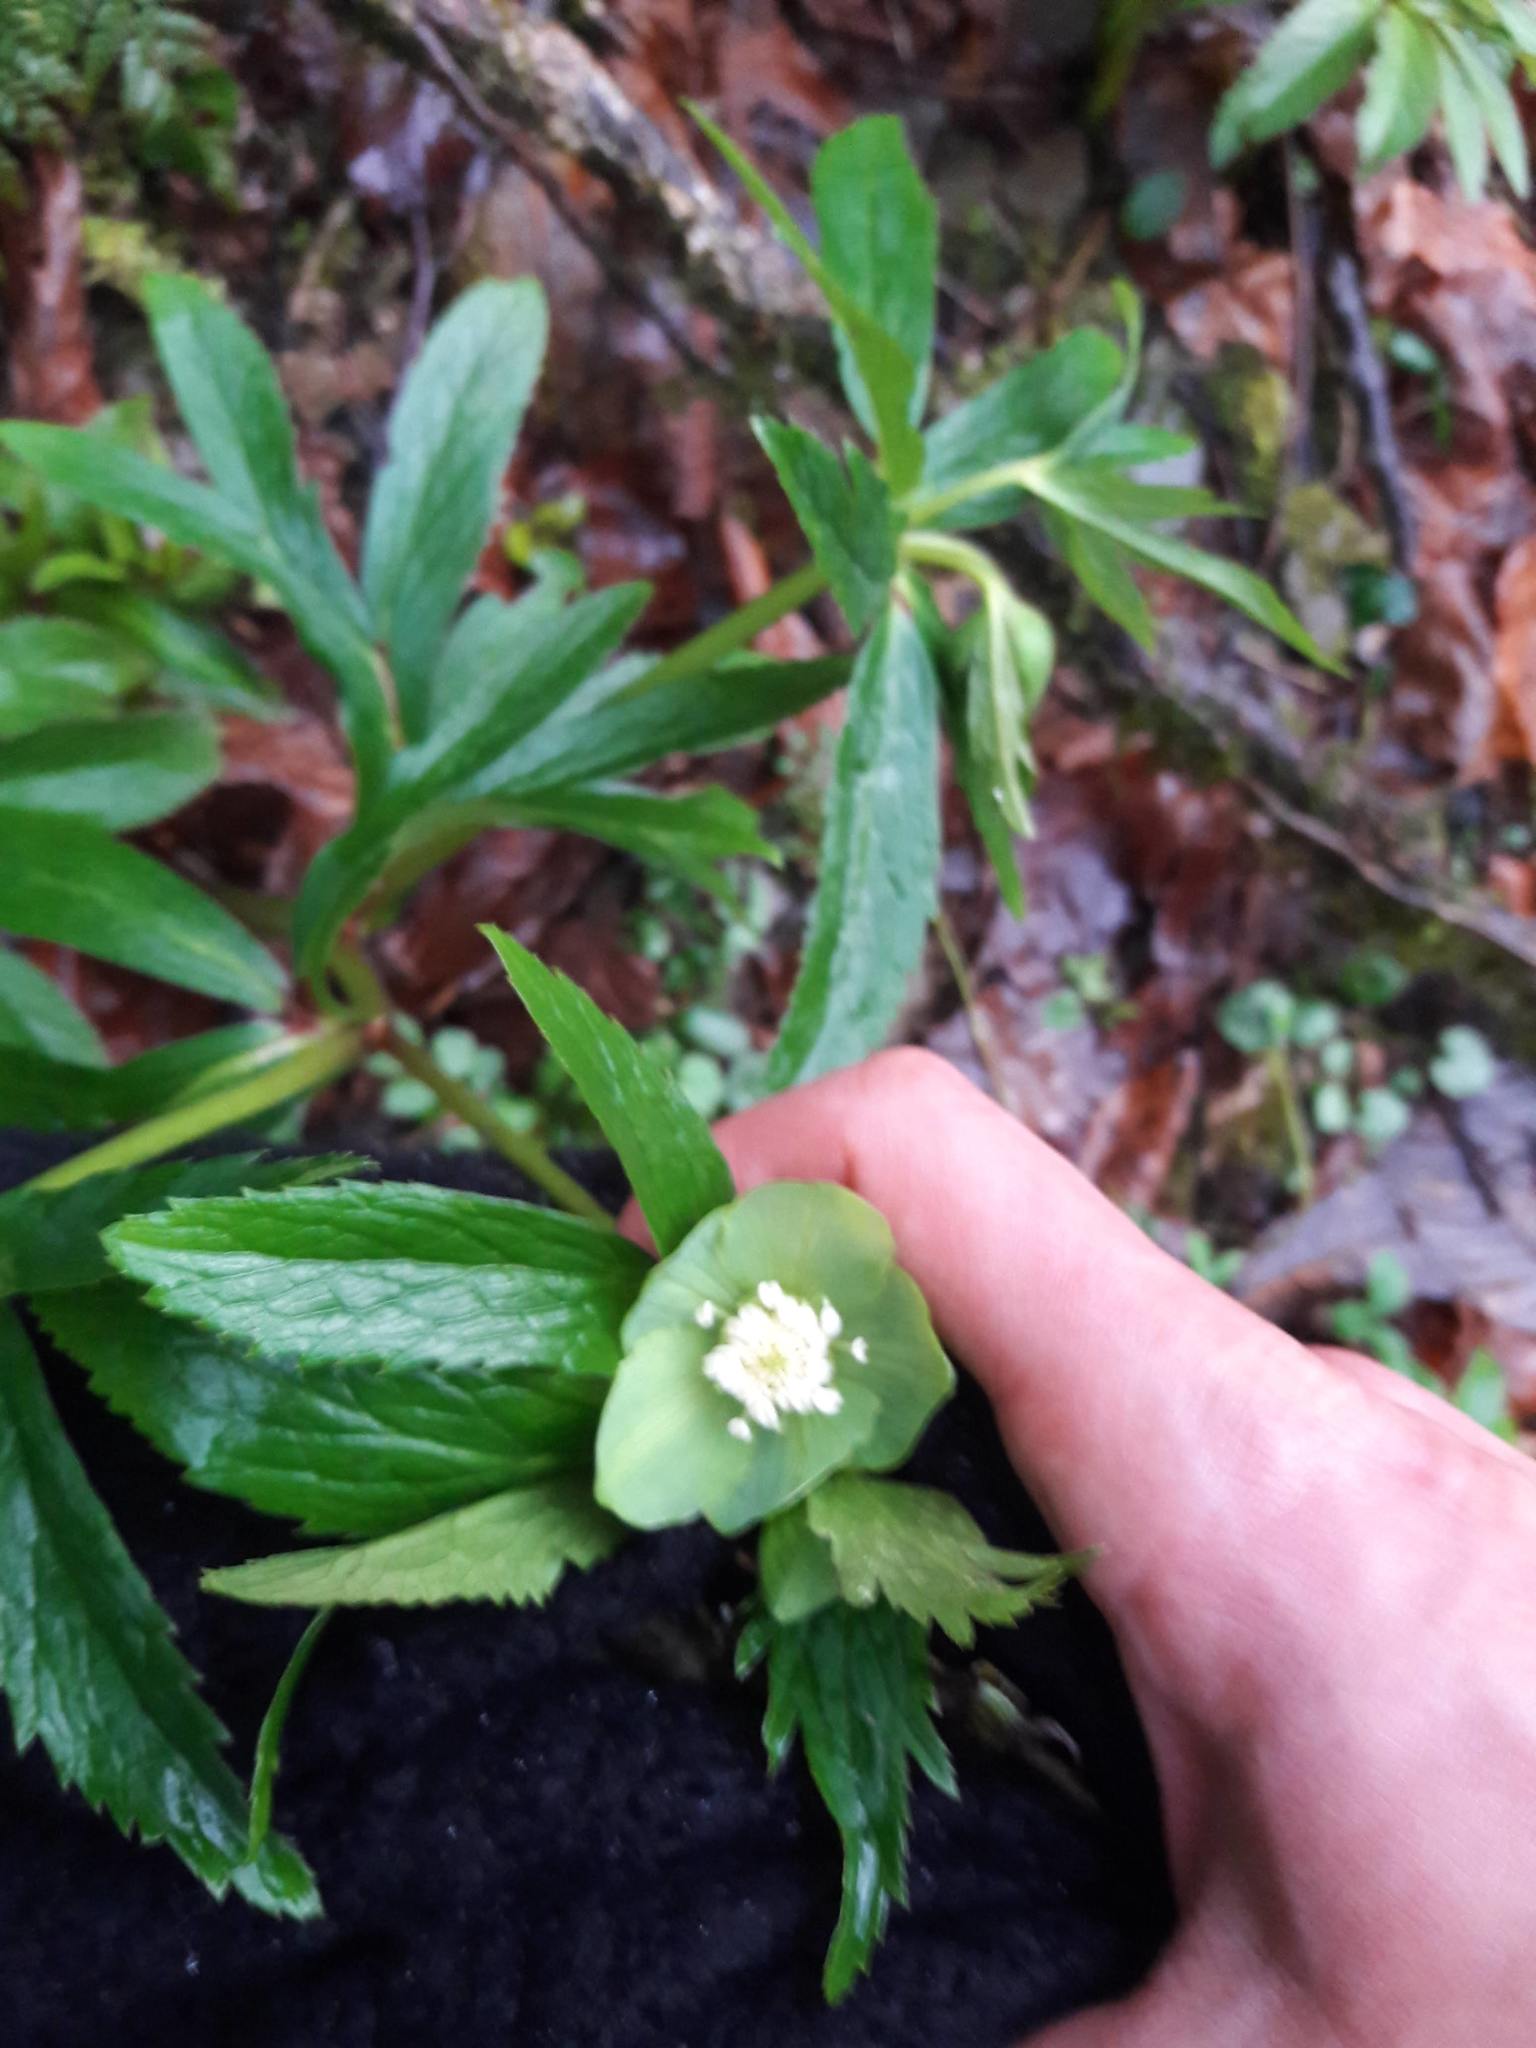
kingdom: Plantae
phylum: Tracheophyta
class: Magnoliopsida
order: Ranunculales
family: Ranunculaceae
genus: Helleborus
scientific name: Helleborus viridis
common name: Green hellebore
